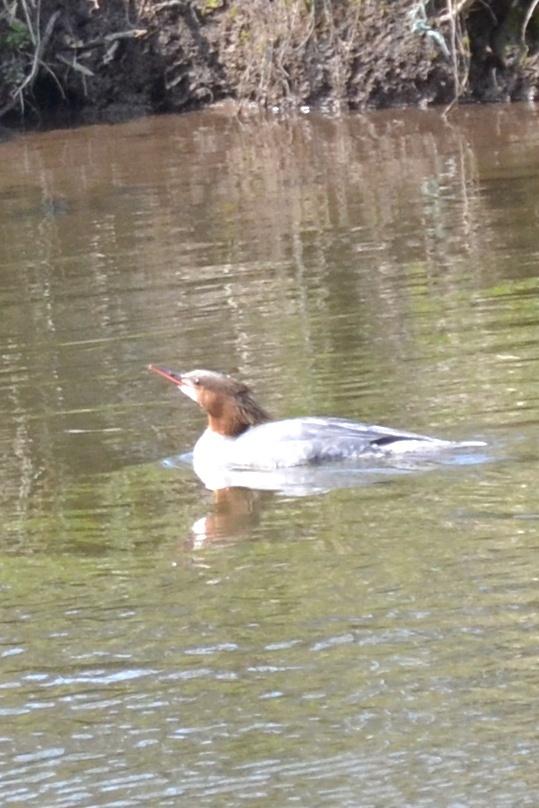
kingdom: Animalia
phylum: Chordata
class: Aves
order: Anseriformes
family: Anatidae
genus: Mergus
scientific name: Mergus merganser
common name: Common merganser
